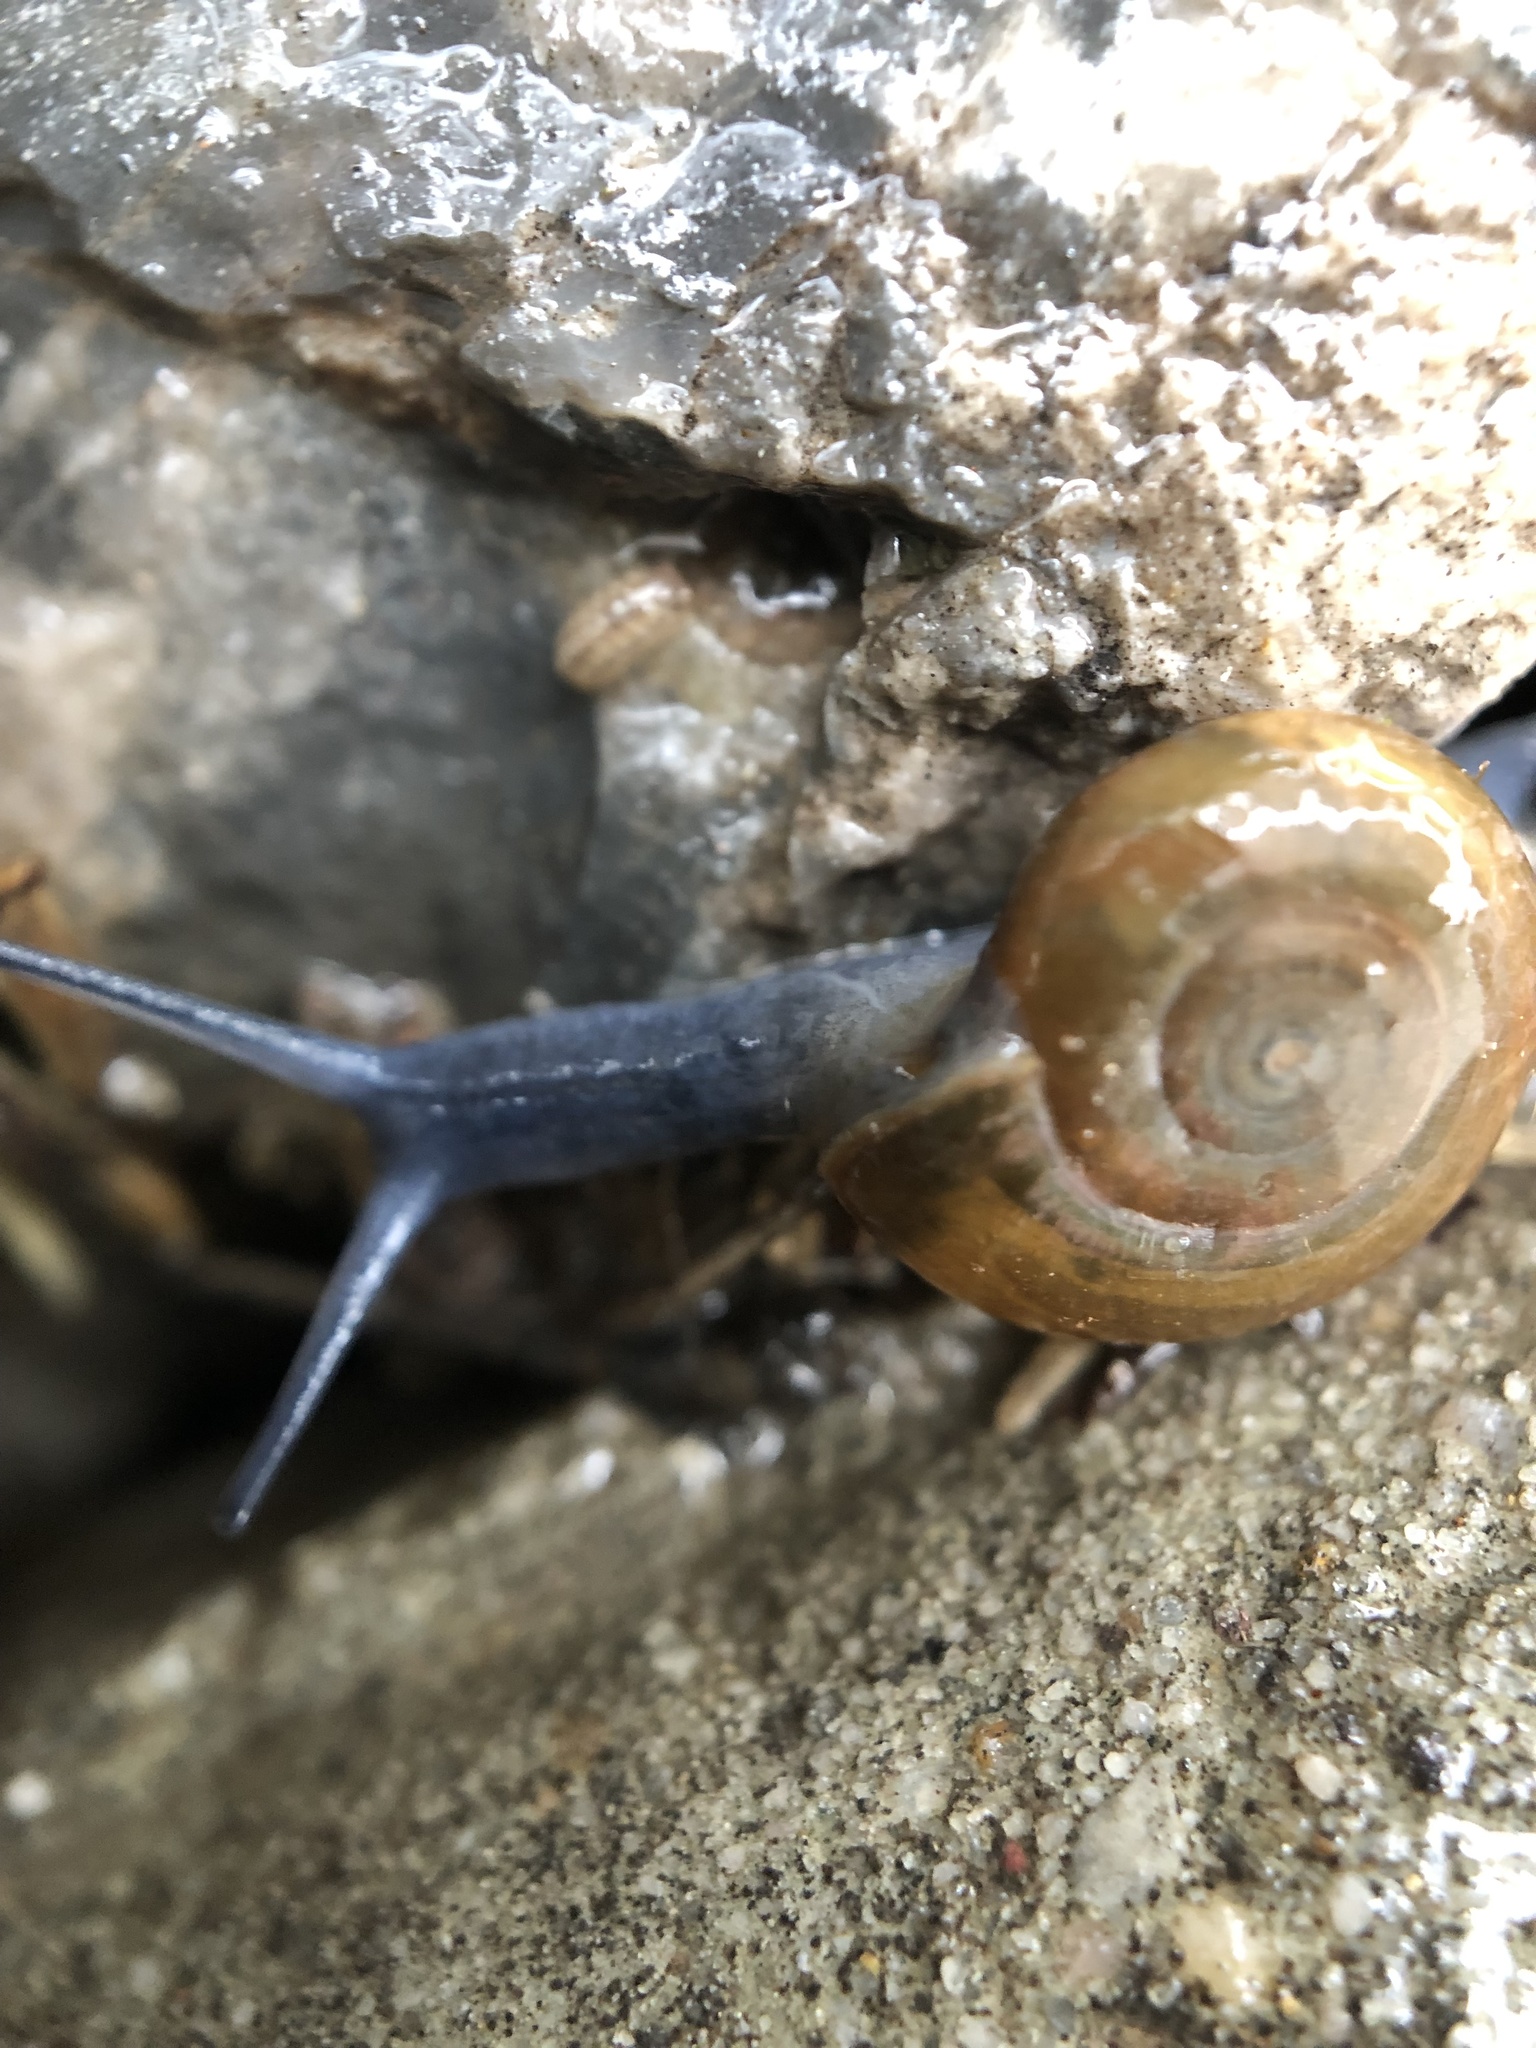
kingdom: Animalia
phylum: Mollusca
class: Gastropoda
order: Stylommatophora
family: Oxychilidae
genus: Oxychilus
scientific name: Oxychilus draparnaudi
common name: Draparnaud's glass snail
